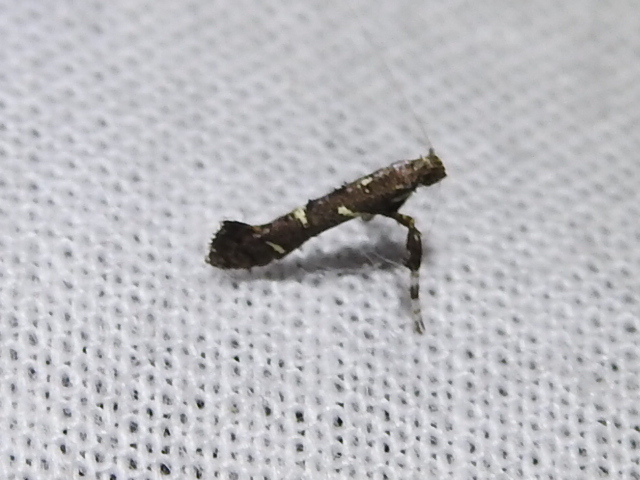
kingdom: Animalia
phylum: Arthropoda
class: Insecta
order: Lepidoptera
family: Gracillariidae
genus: Caloptilia
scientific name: Caloptilia triadicae
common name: Tallow leaf roller
